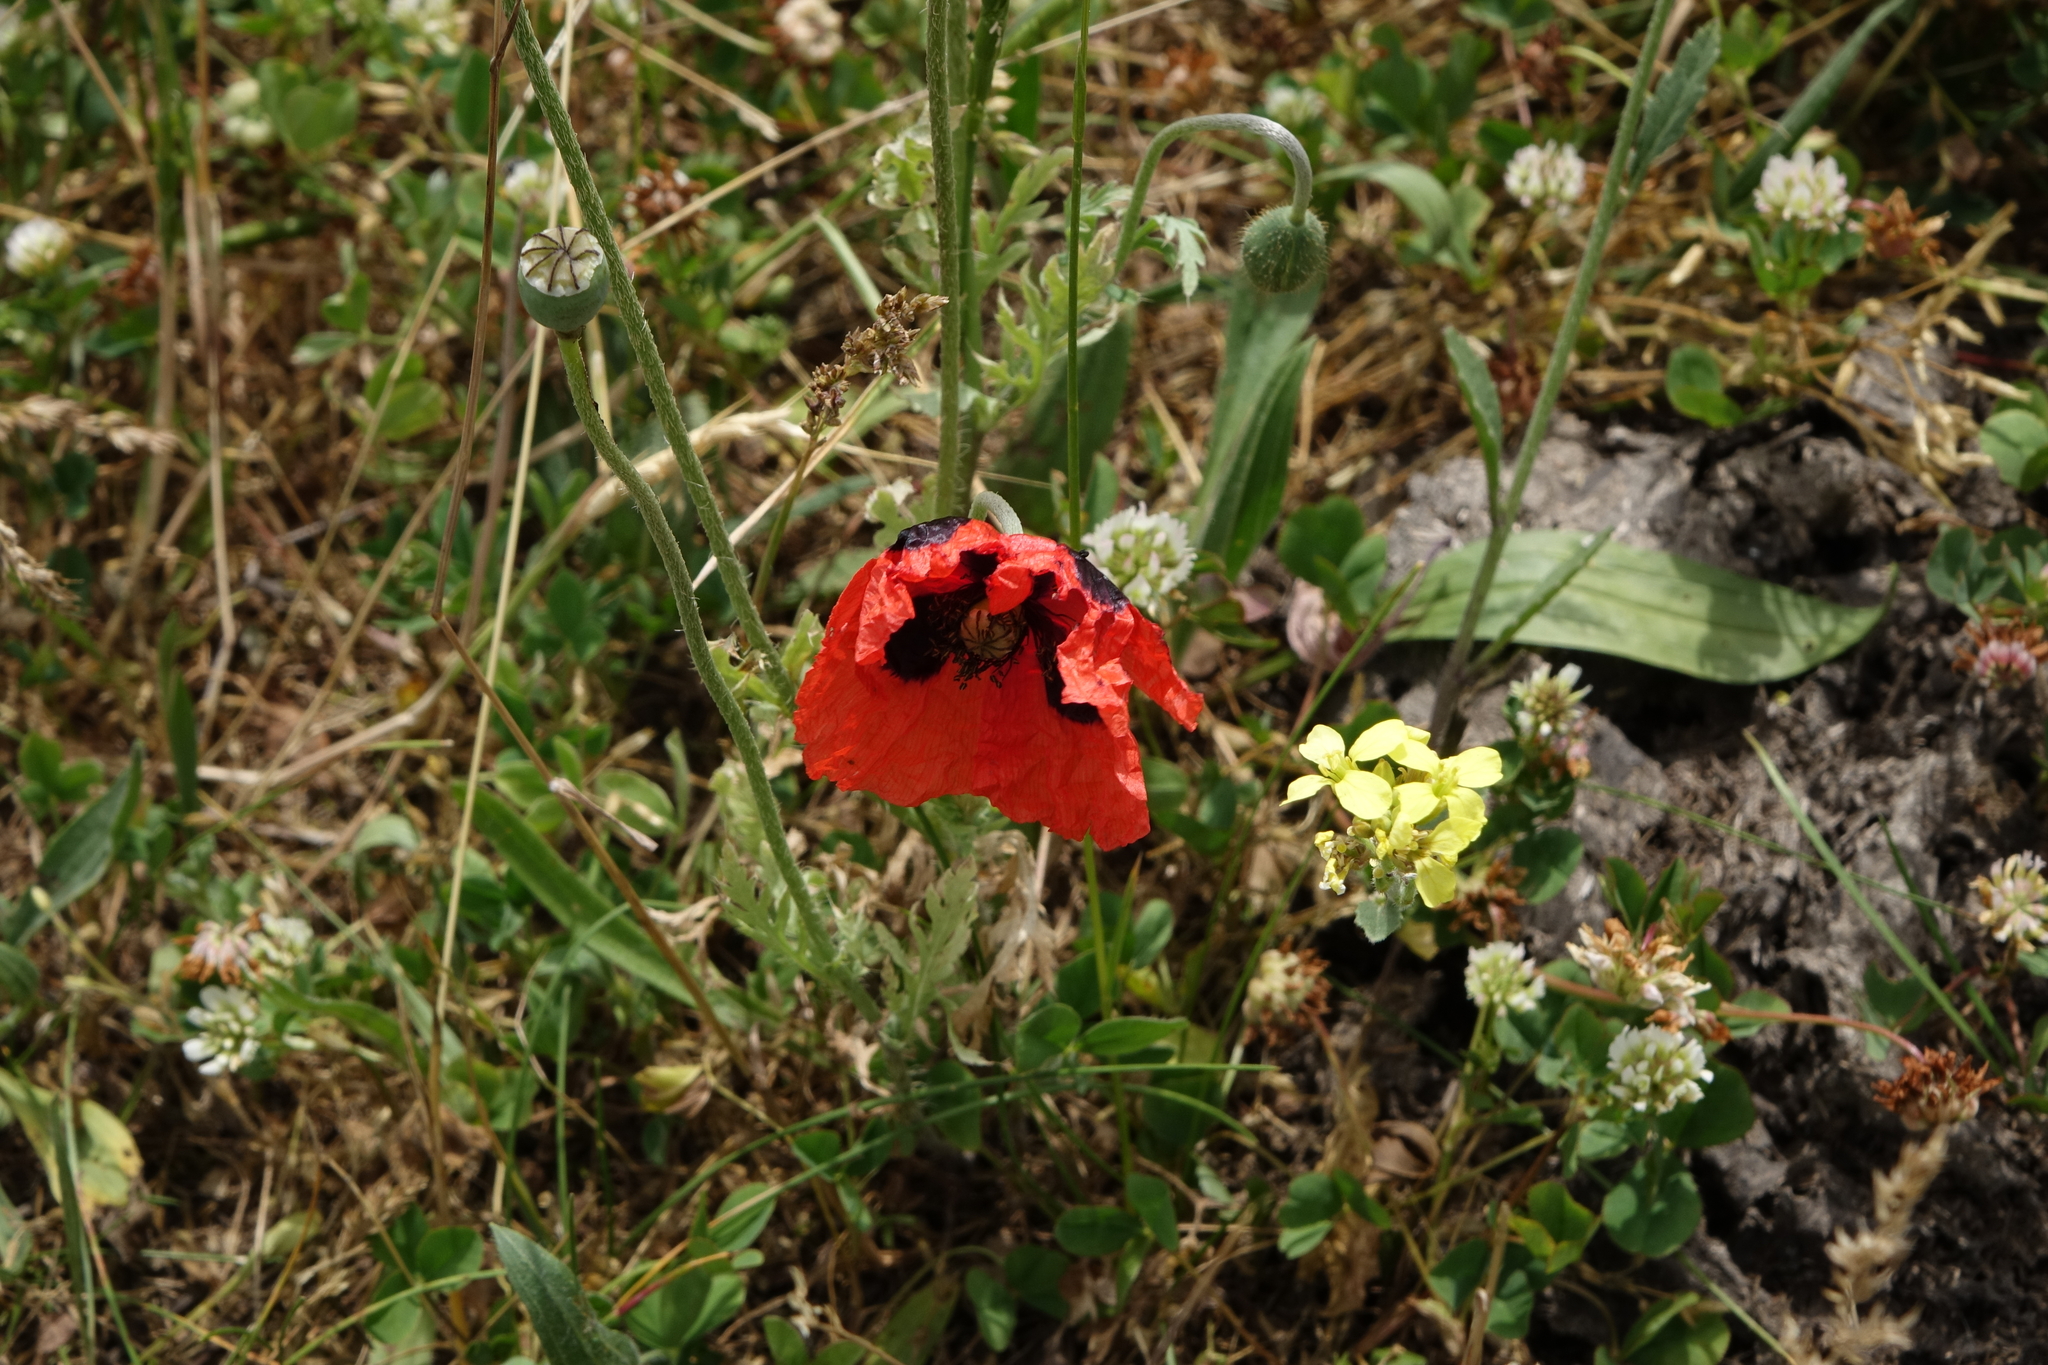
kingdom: Plantae
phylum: Tracheophyta
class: Magnoliopsida
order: Ranunculales
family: Papaveraceae
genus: Papaver
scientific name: Papaver rhoeas
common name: Corn poppy
